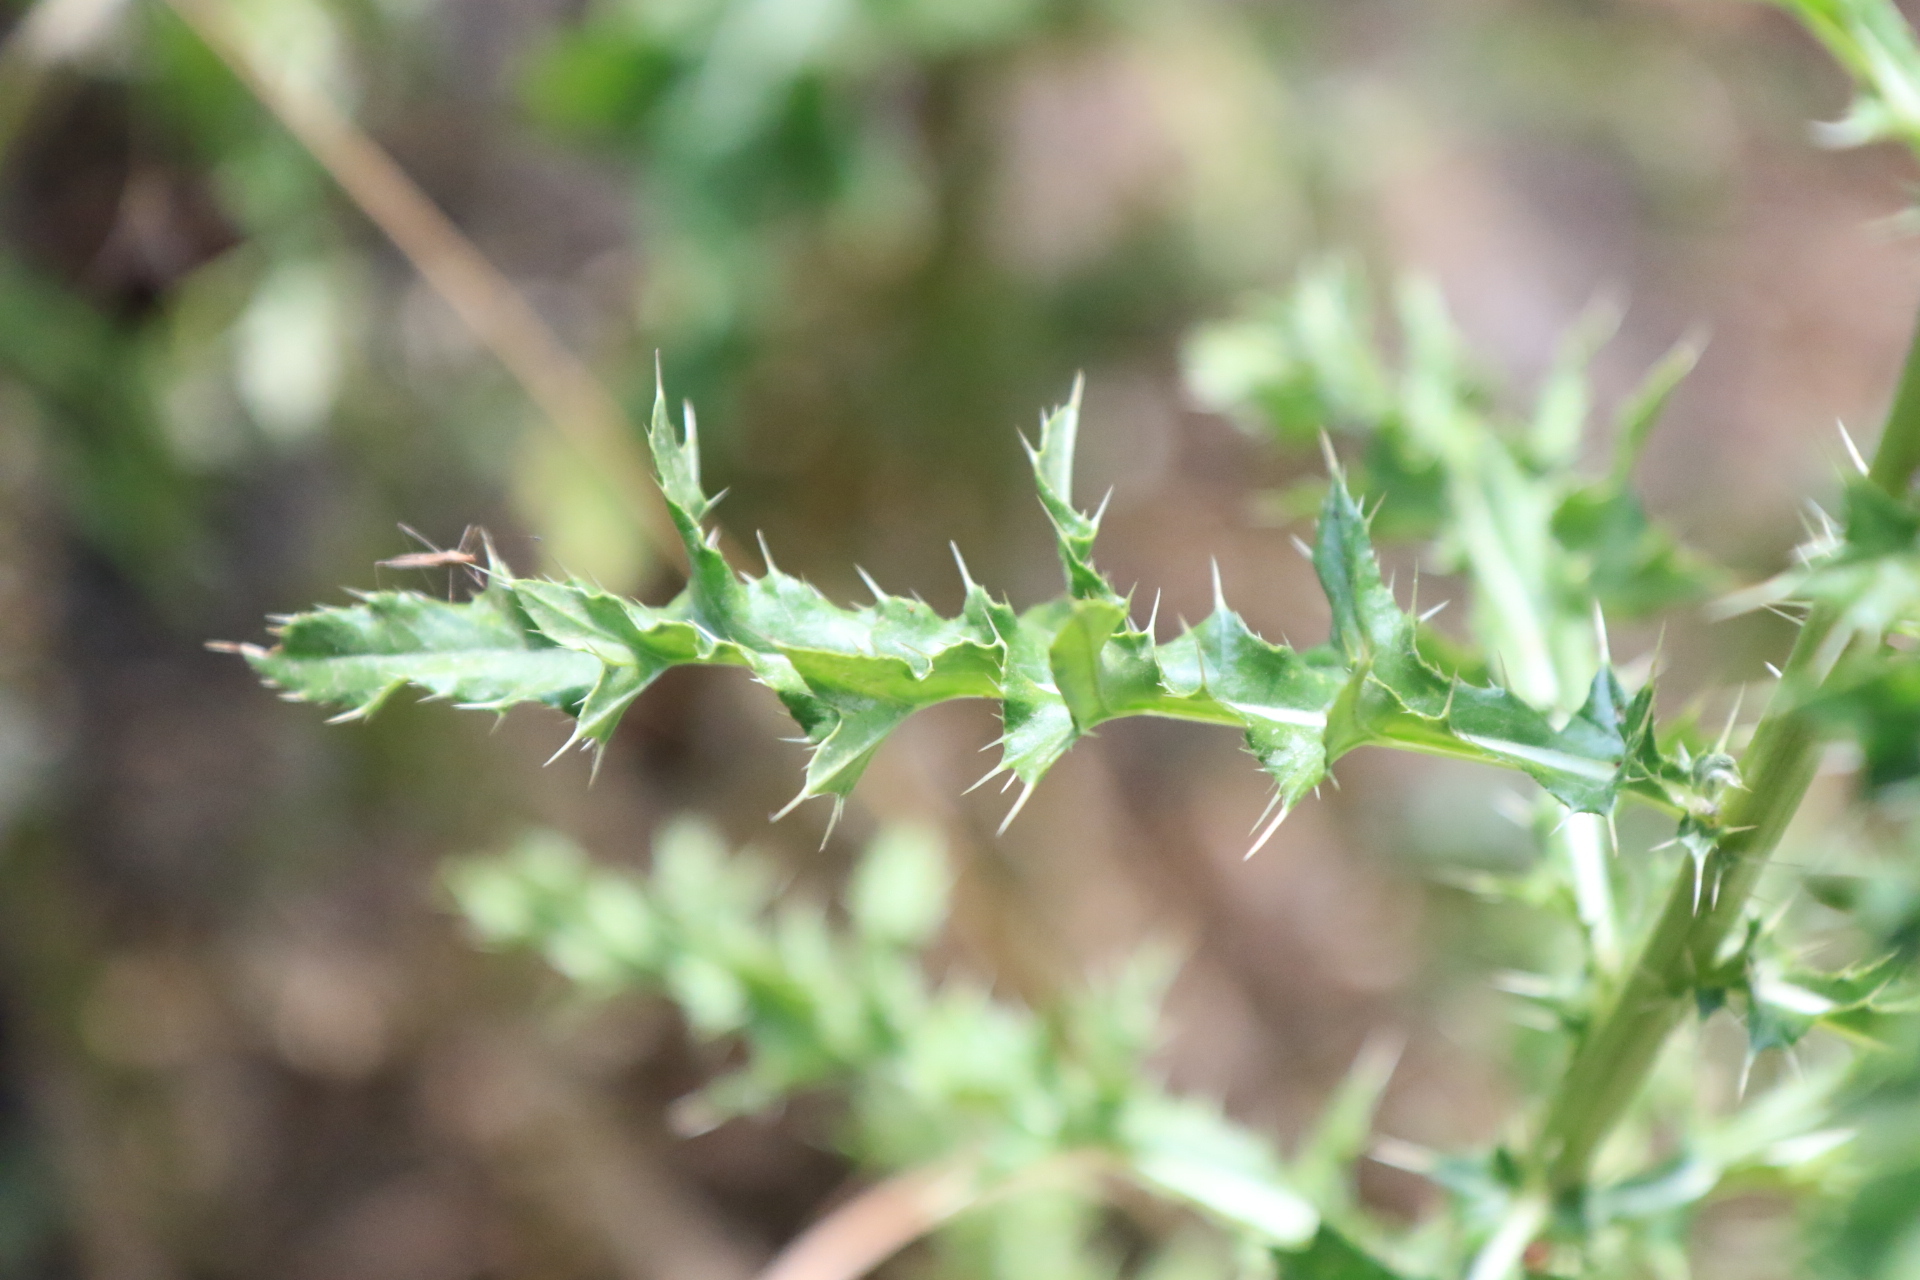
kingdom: Plantae
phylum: Tracheophyta
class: Magnoliopsida
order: Asterales
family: Asteraceae
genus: Cirsium
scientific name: Cirsium arvense
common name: Creeping thistle
